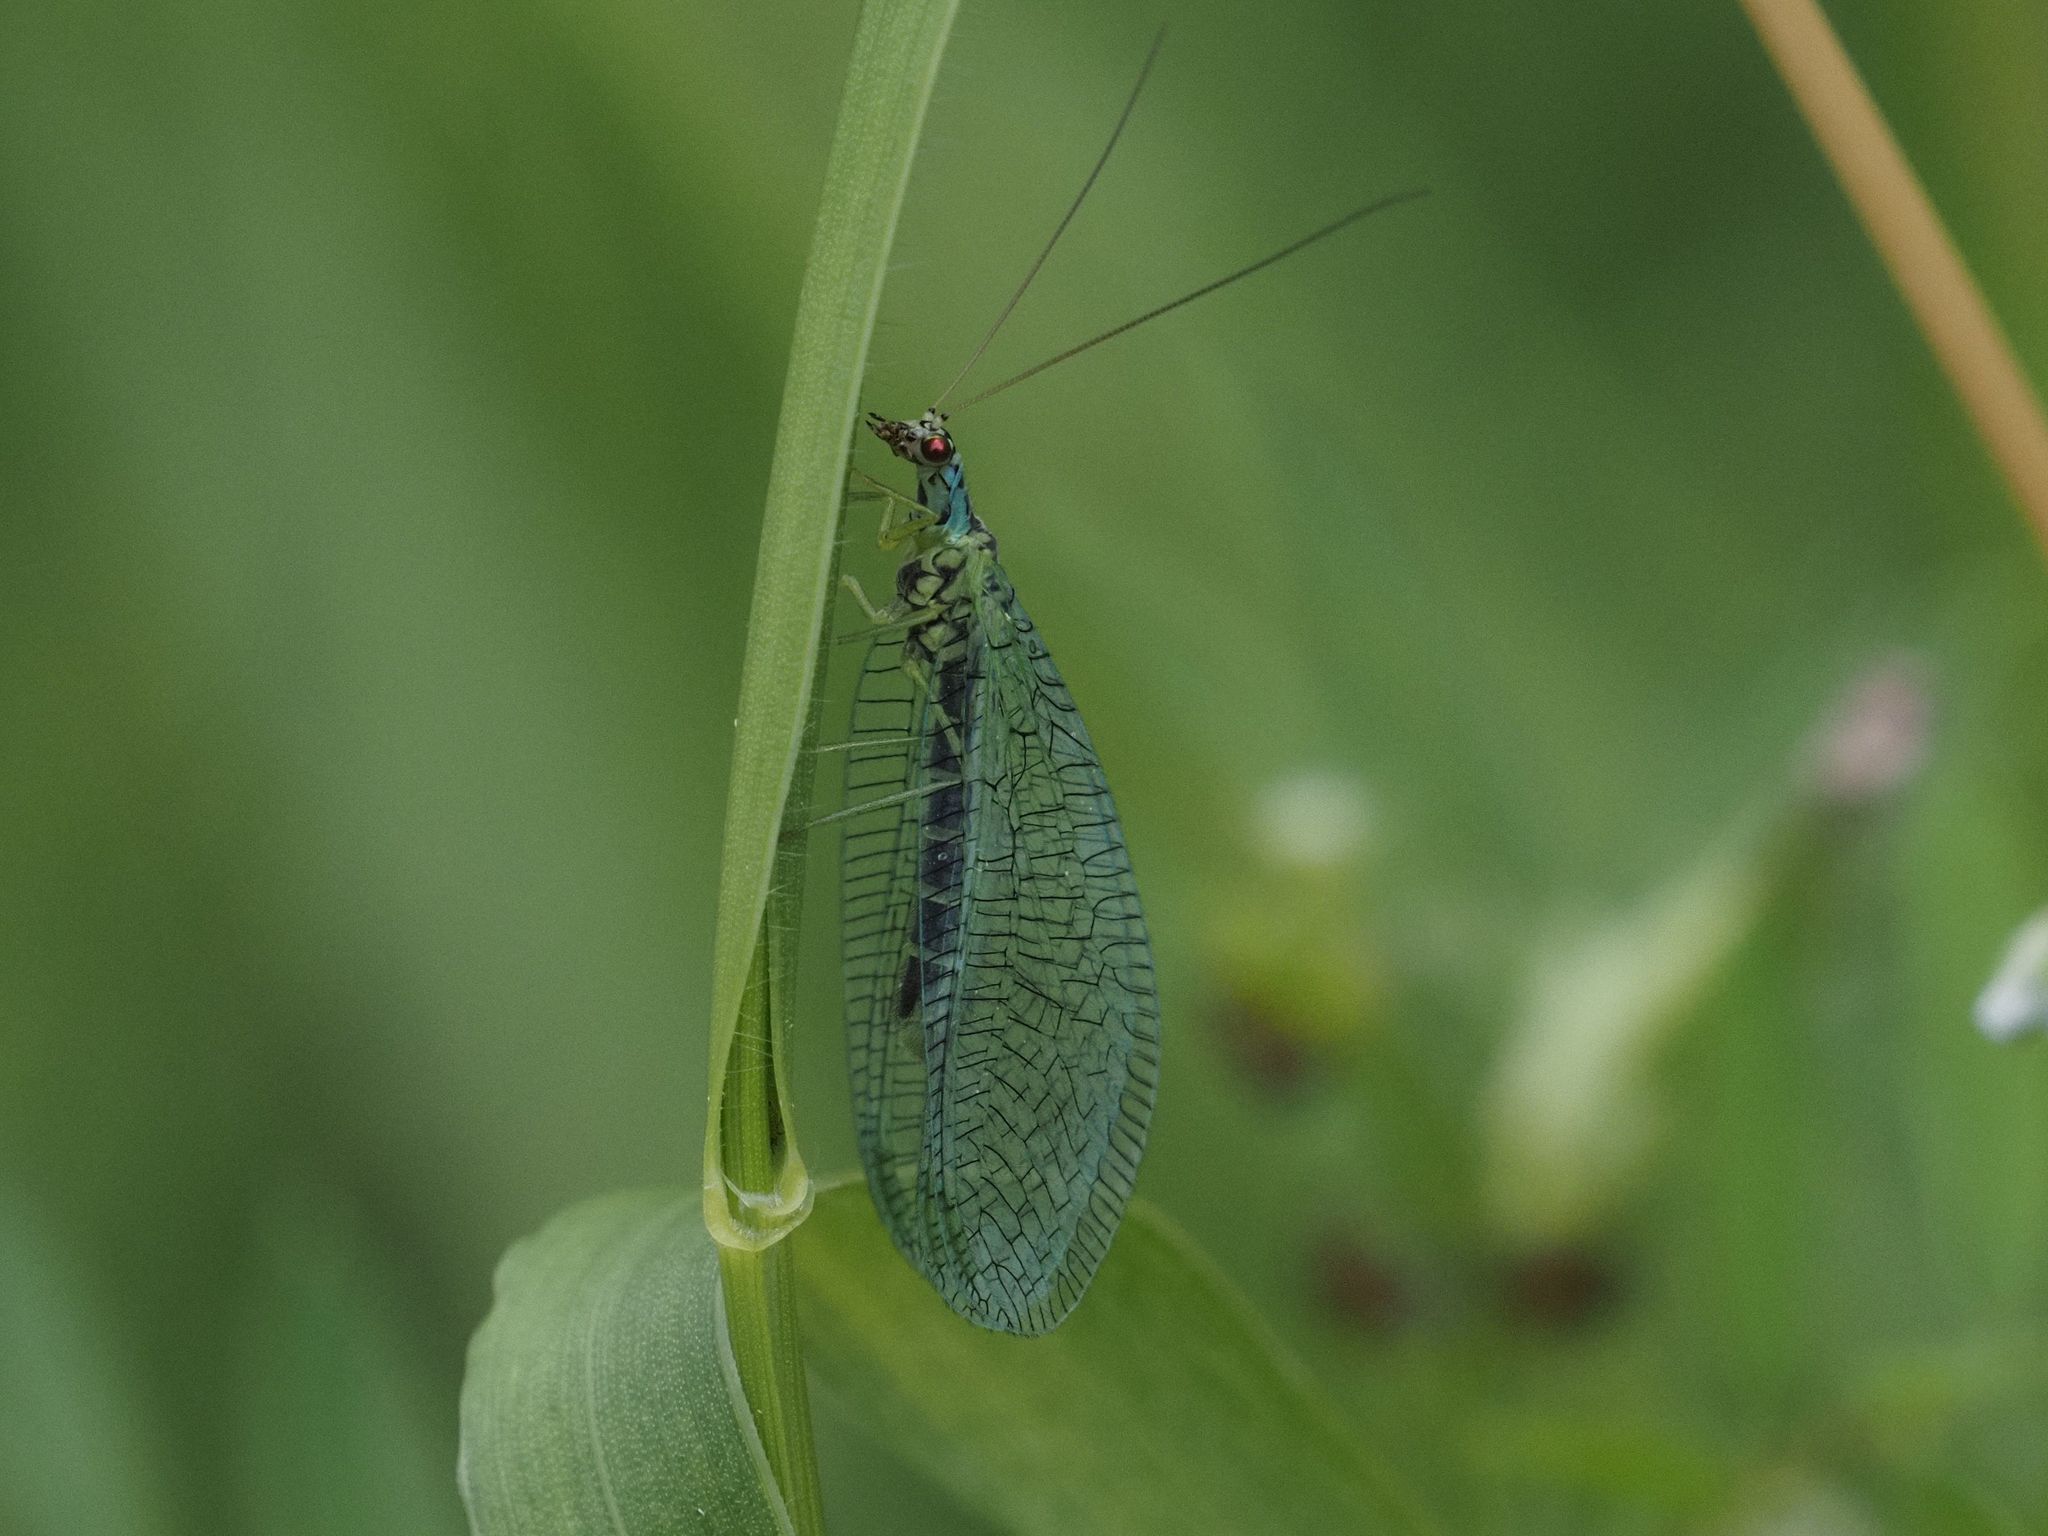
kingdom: Animalia
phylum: Arthropoda
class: Insecta
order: Neuroptera
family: Chrysopidae
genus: Chrysopa
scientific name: Chrysopa perla
